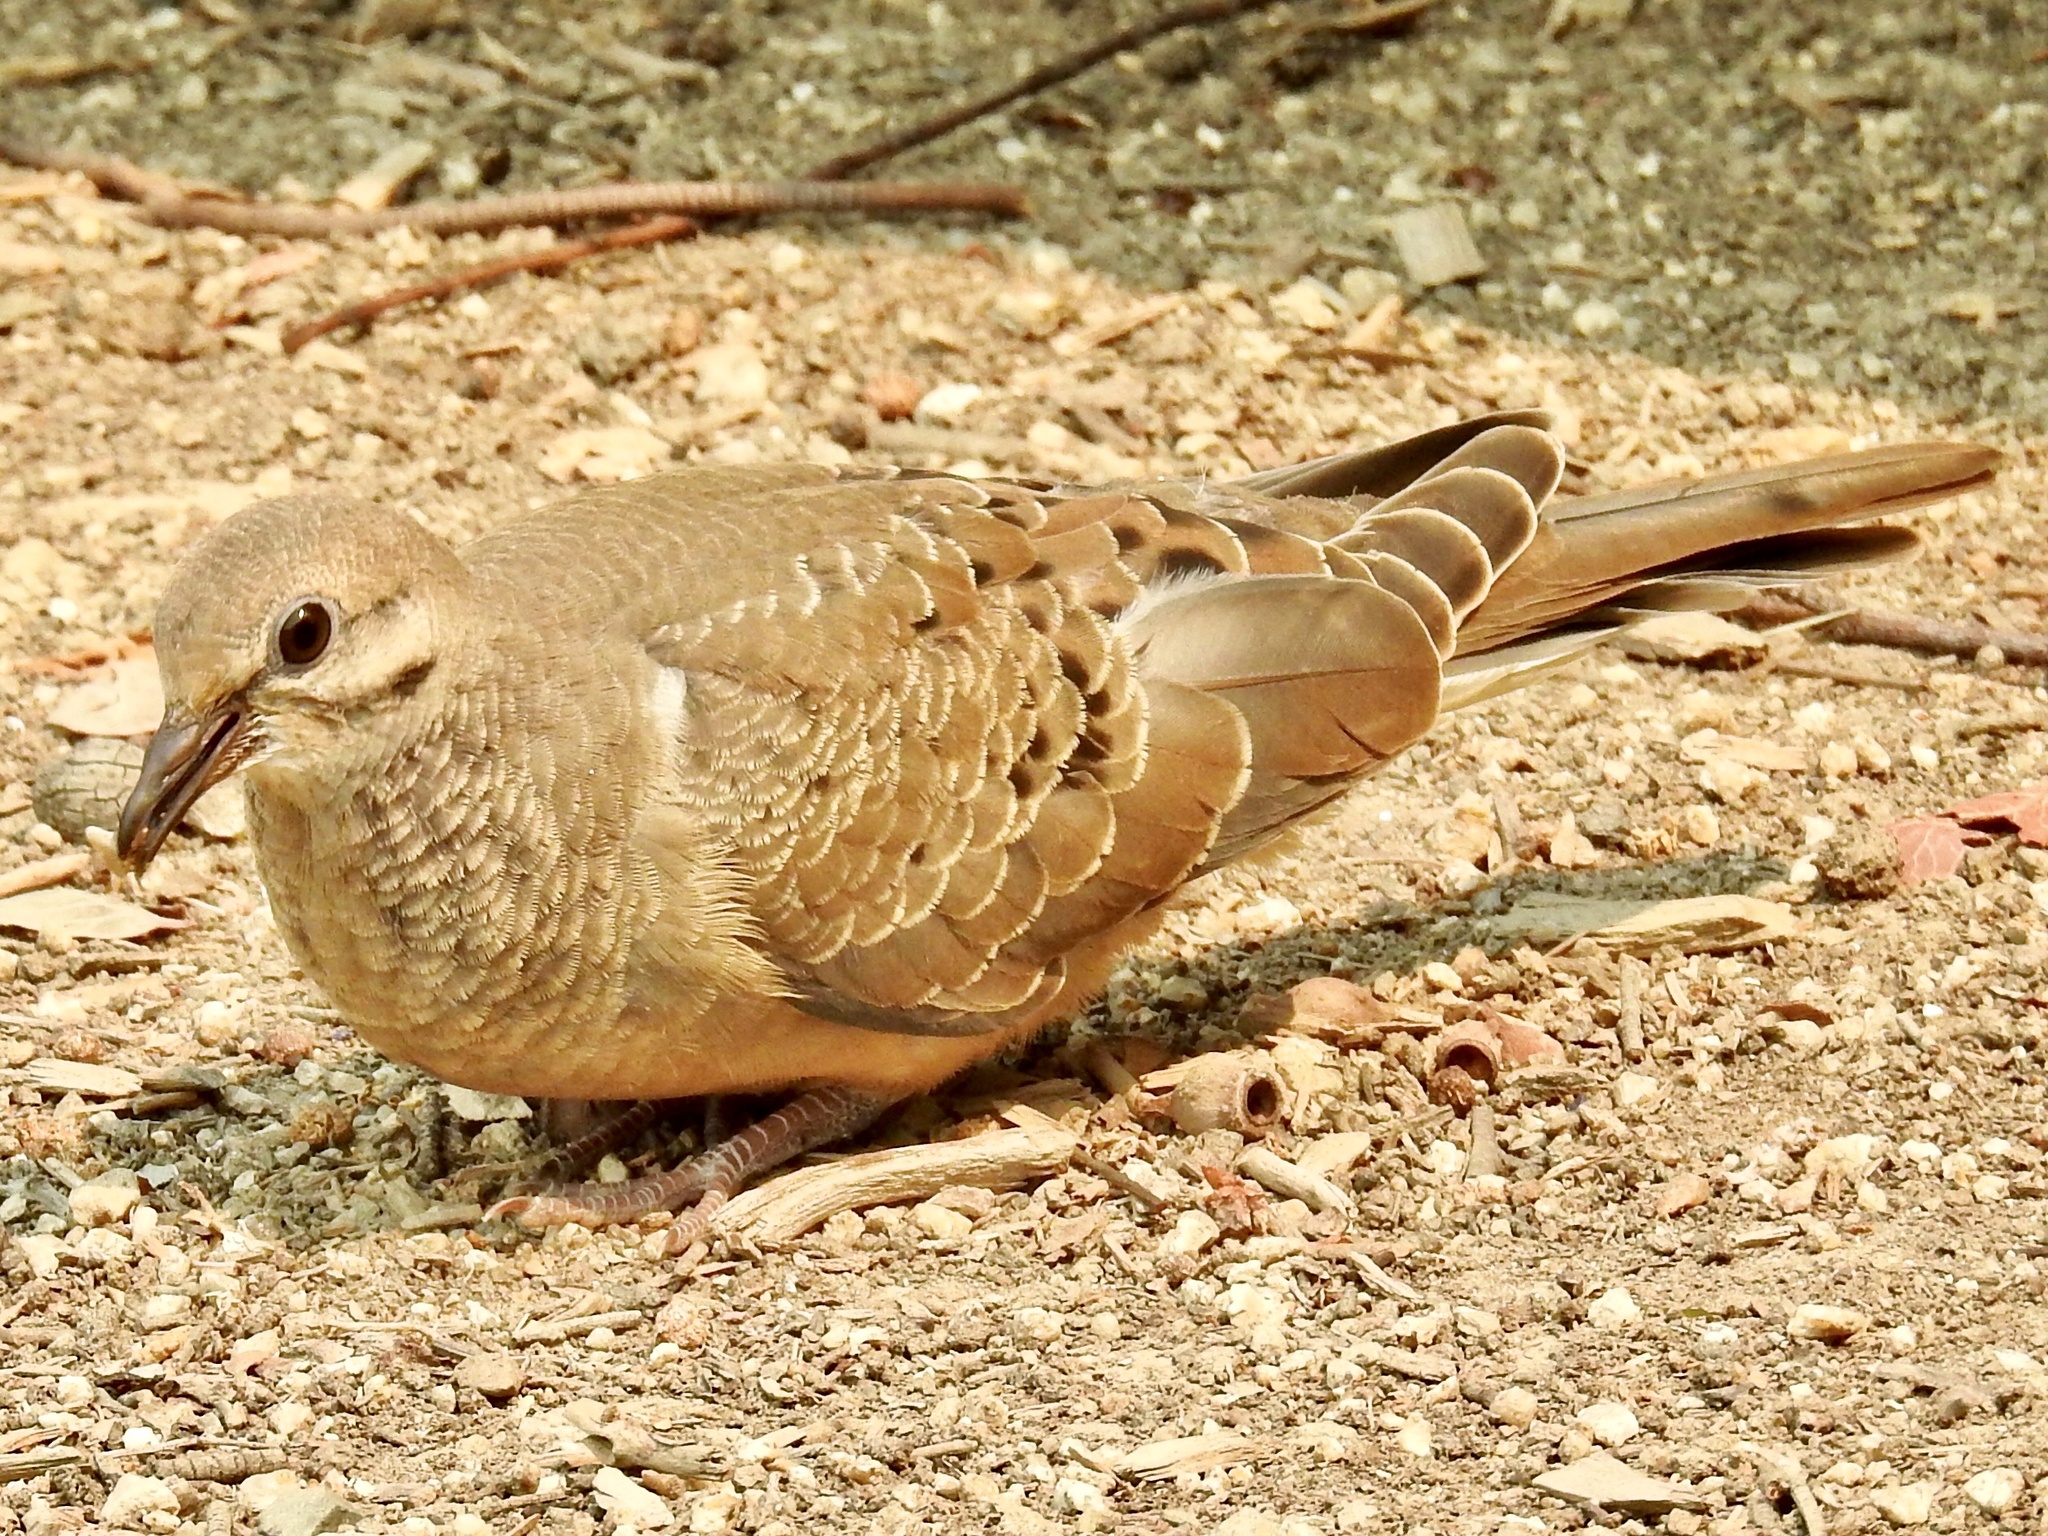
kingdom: Animalia
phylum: Chordata
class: Aves
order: Columbiformes
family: Columbidae
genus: Zenaida
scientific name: Zenaida macroura
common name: Mourning dove
